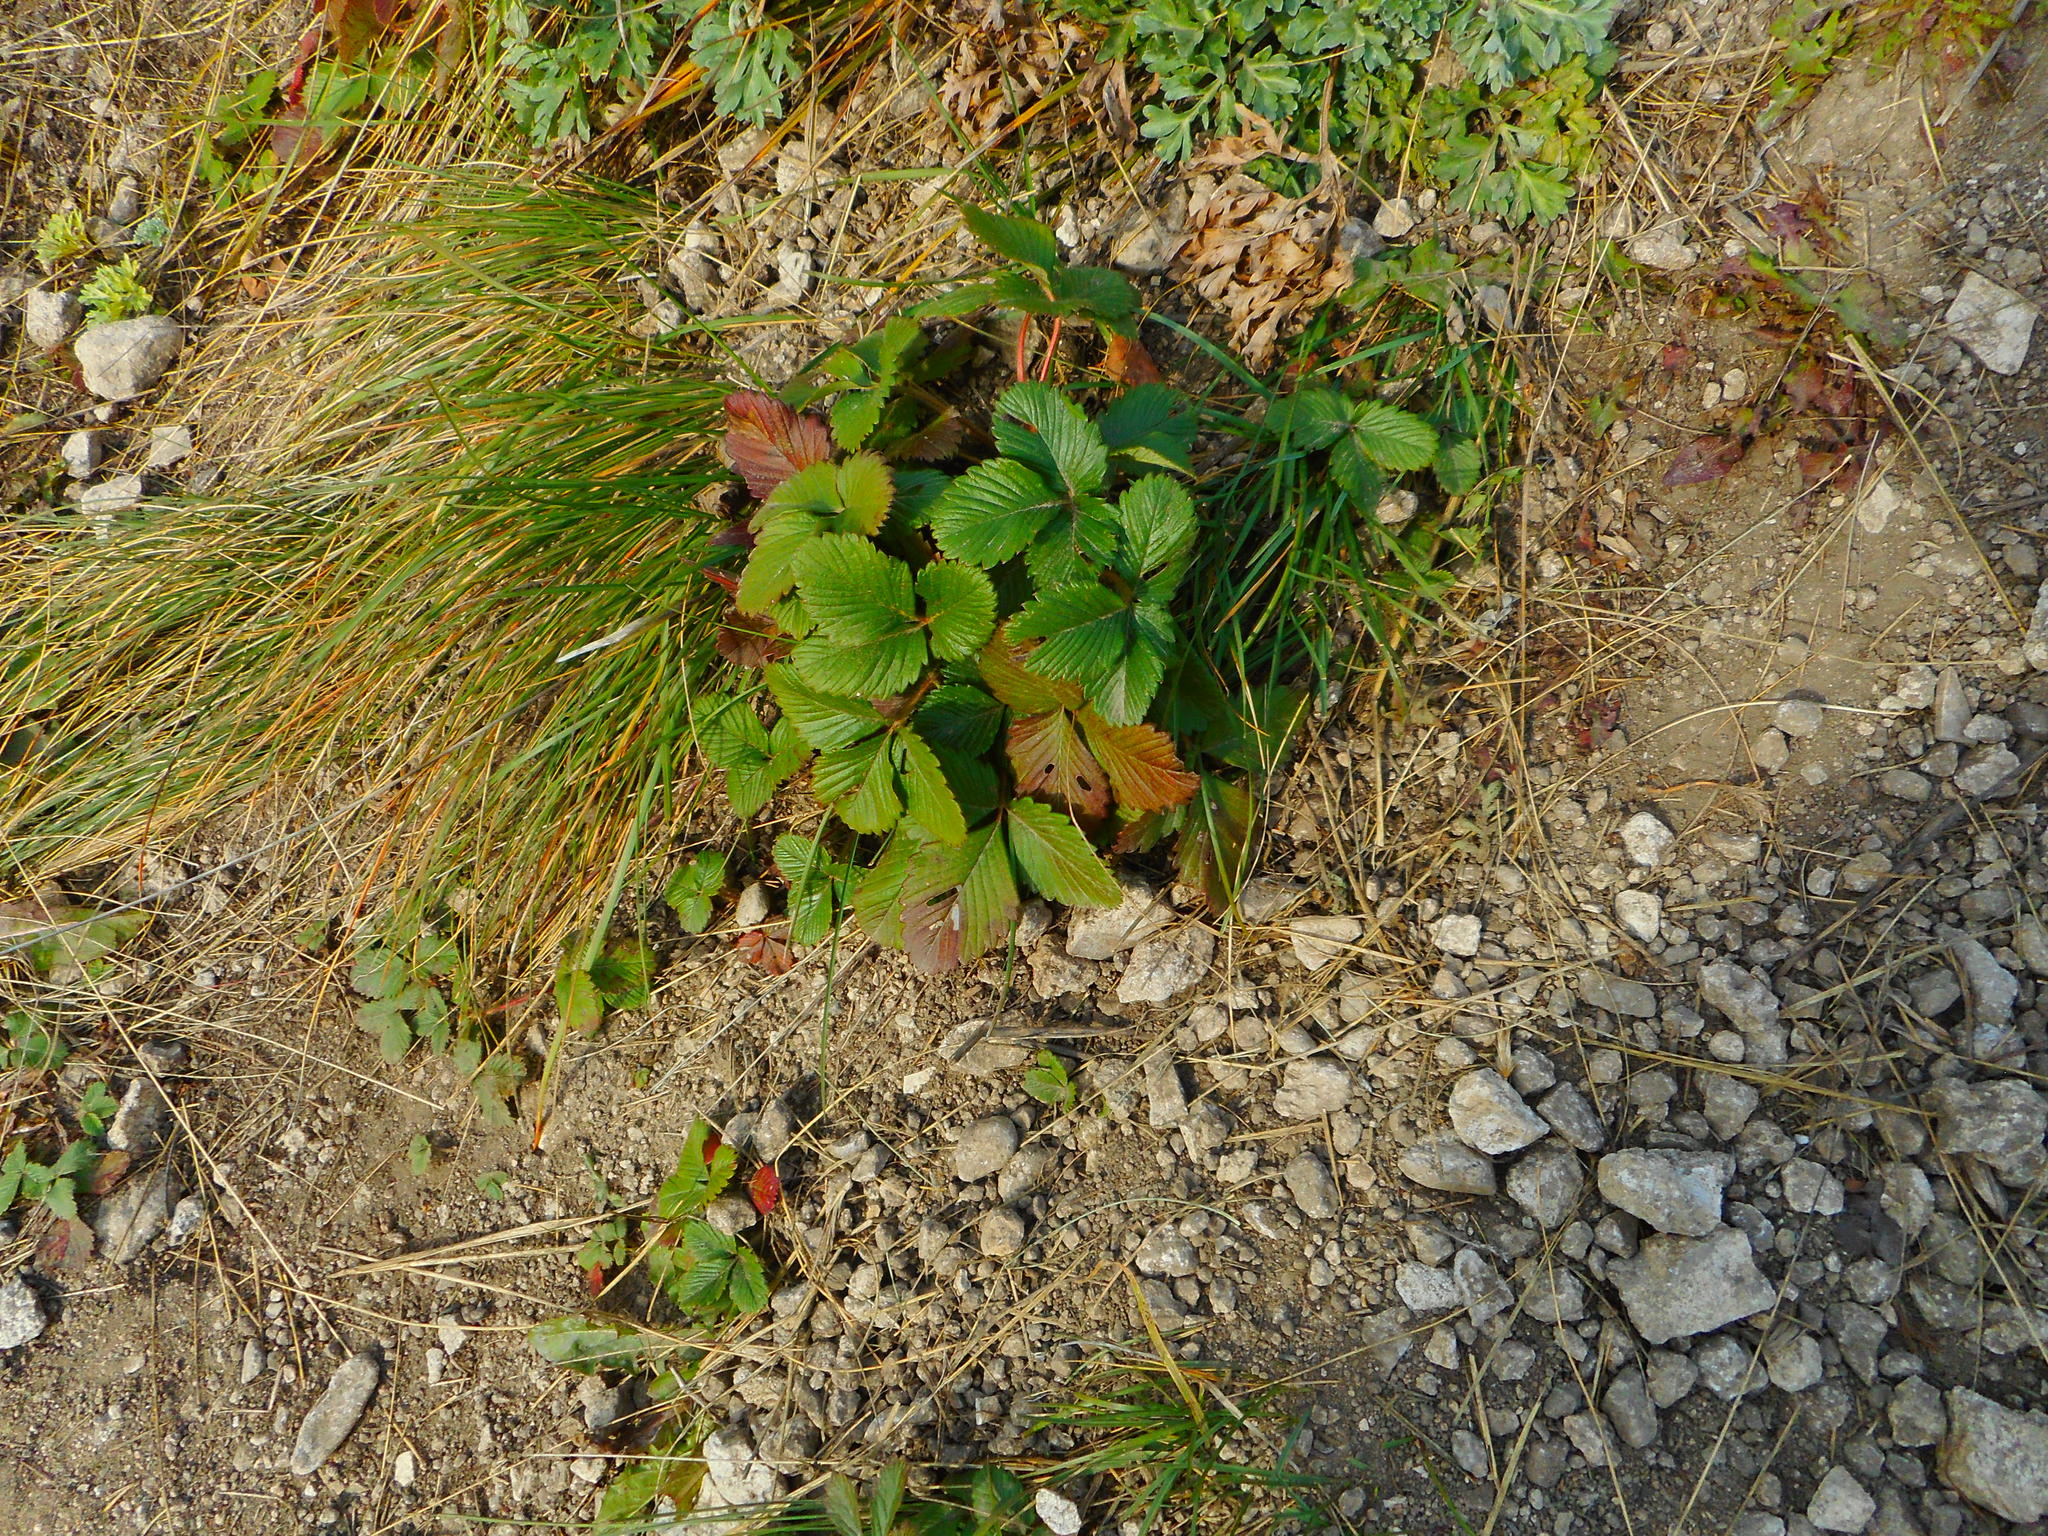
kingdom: Plantae
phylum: Tracheophyta
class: Magnoliopsida
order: Rosales
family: Rosaceae
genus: Fragaria
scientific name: Fragaria viridis
